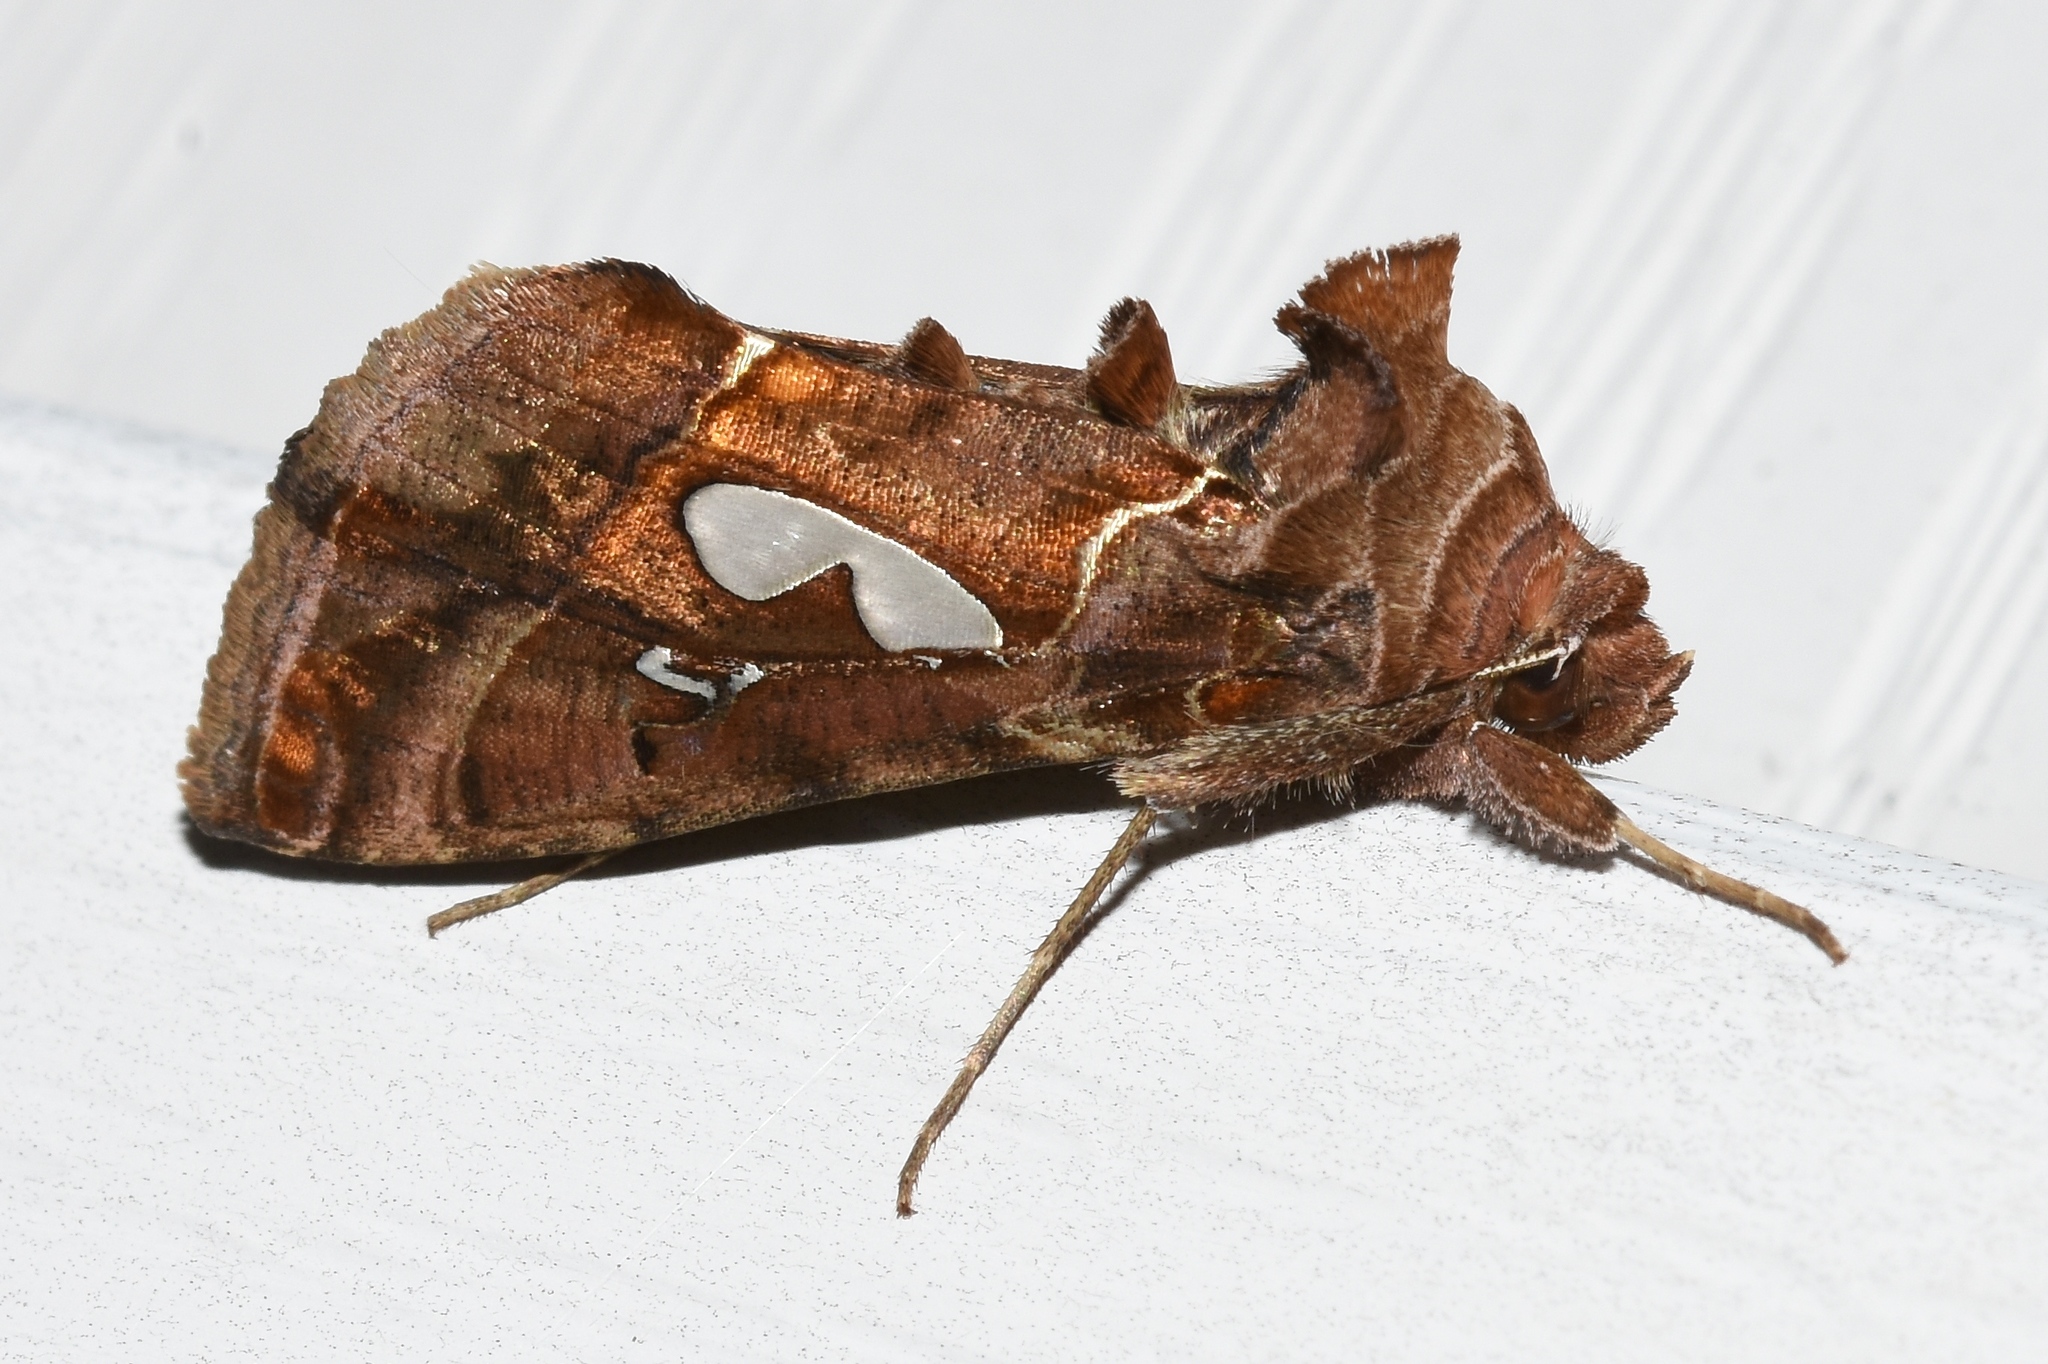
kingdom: Animalia
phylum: Arthropoda
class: Insecta
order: Lepidoptera
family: Noctuidae
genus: Megalographa
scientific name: Megalographa biloba
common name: Cutworm
